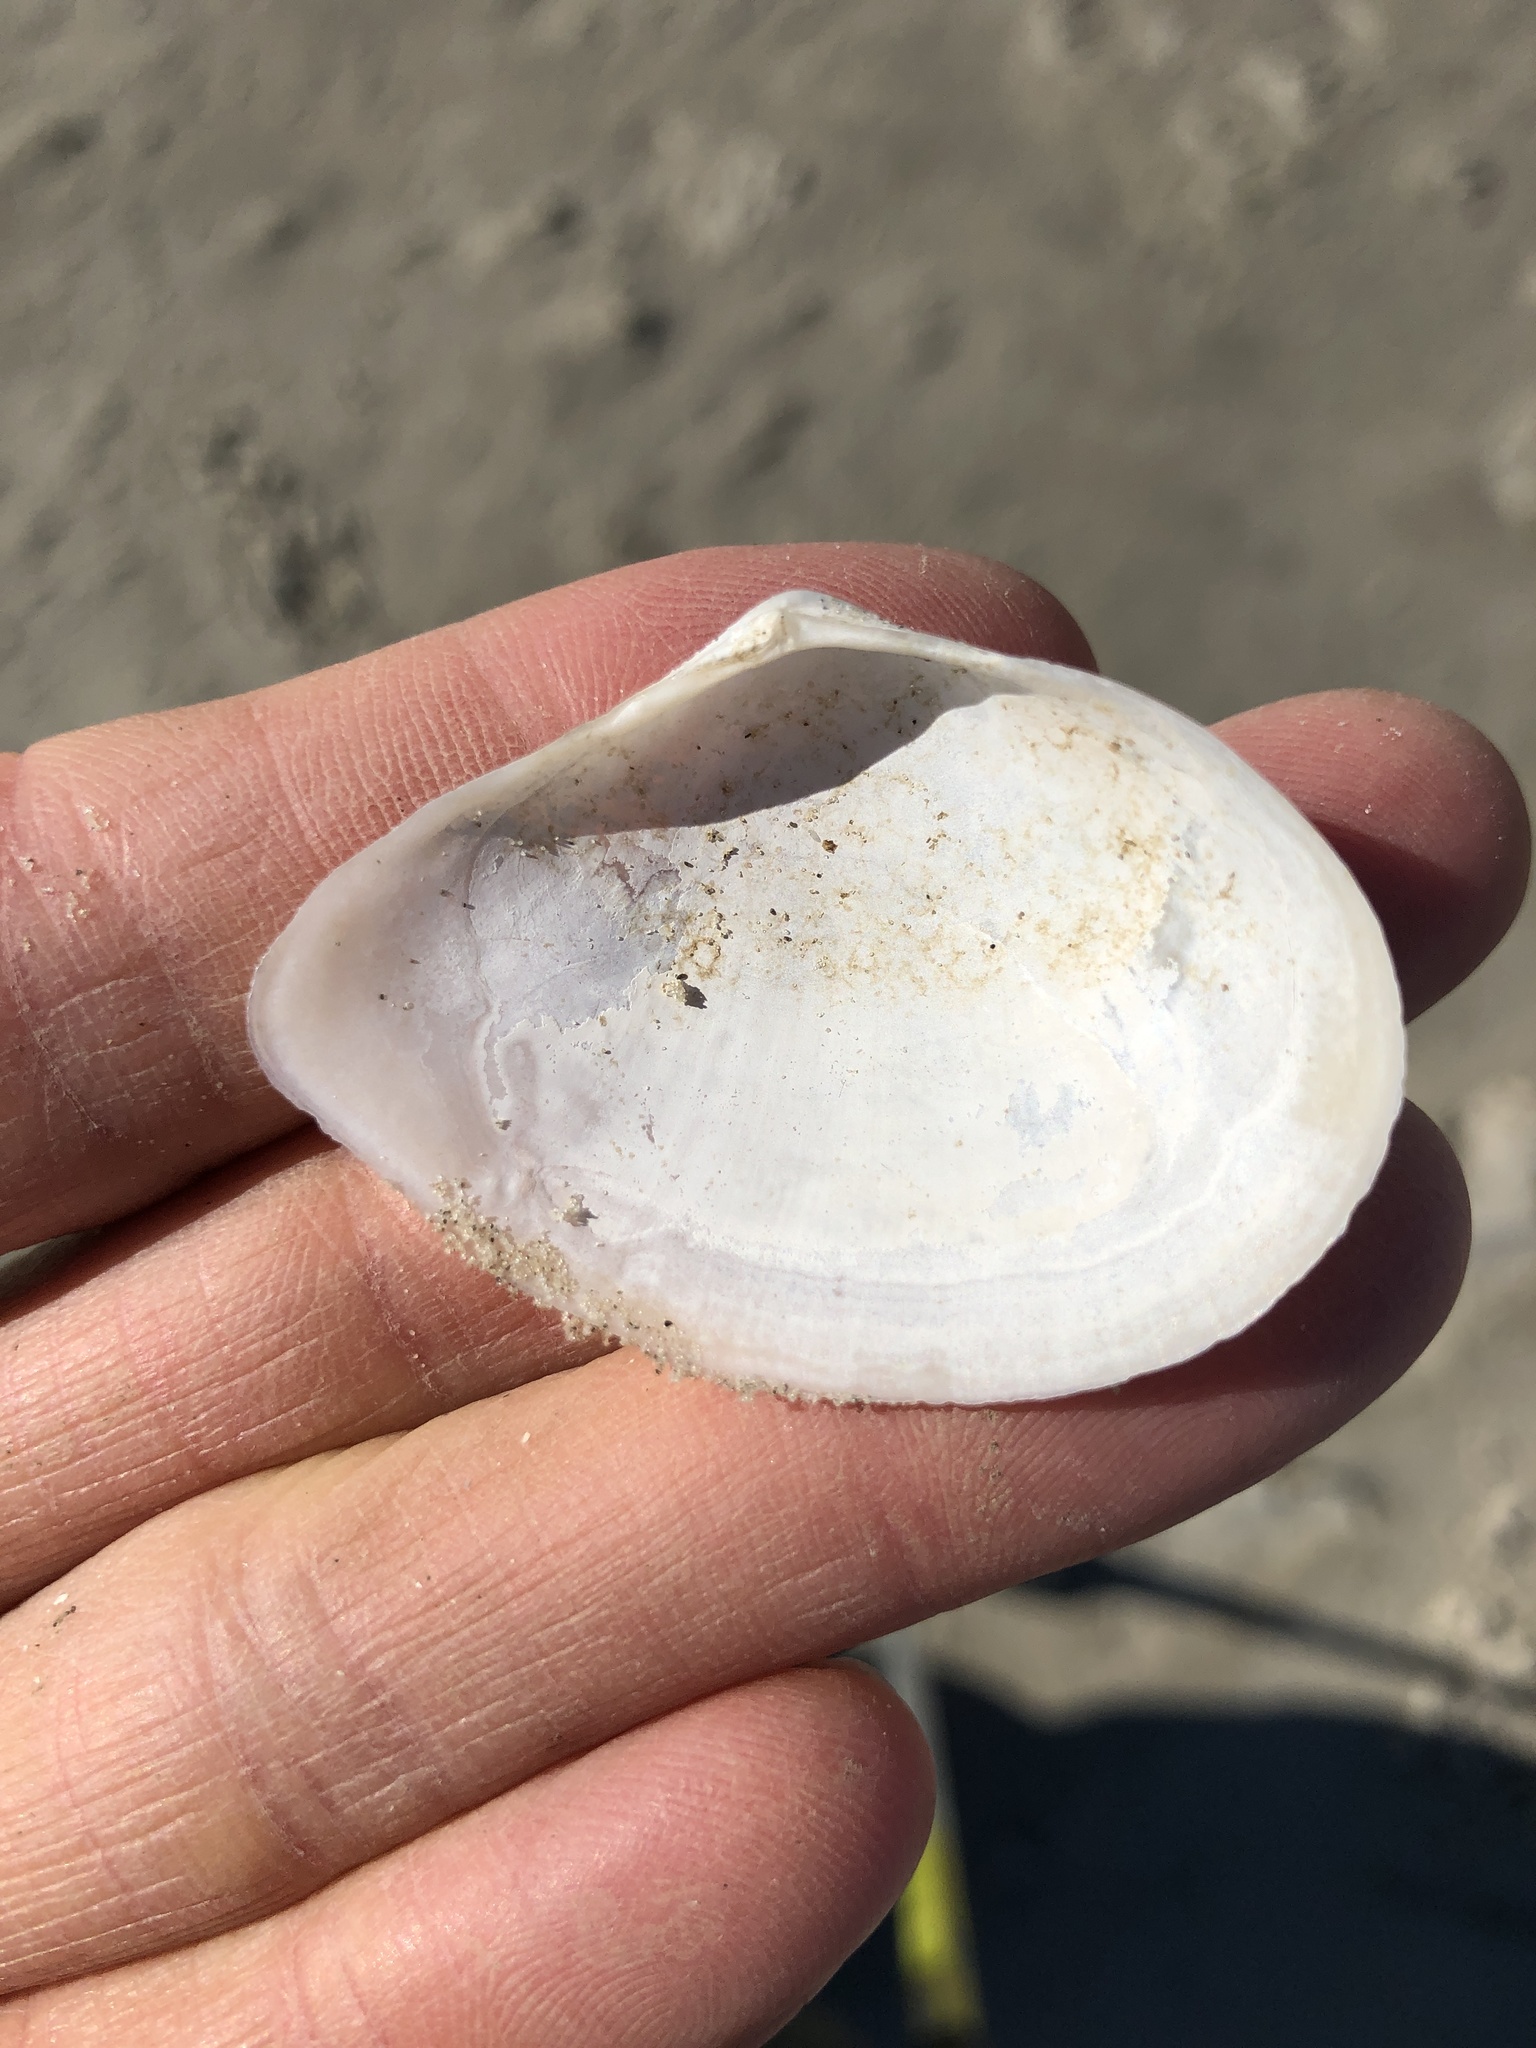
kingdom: Animalia
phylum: Mollusca
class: Bivalvia
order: Cardiida
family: Tellinidae
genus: Austromacoma
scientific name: Austromacoma constricta
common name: Constricted macoma
